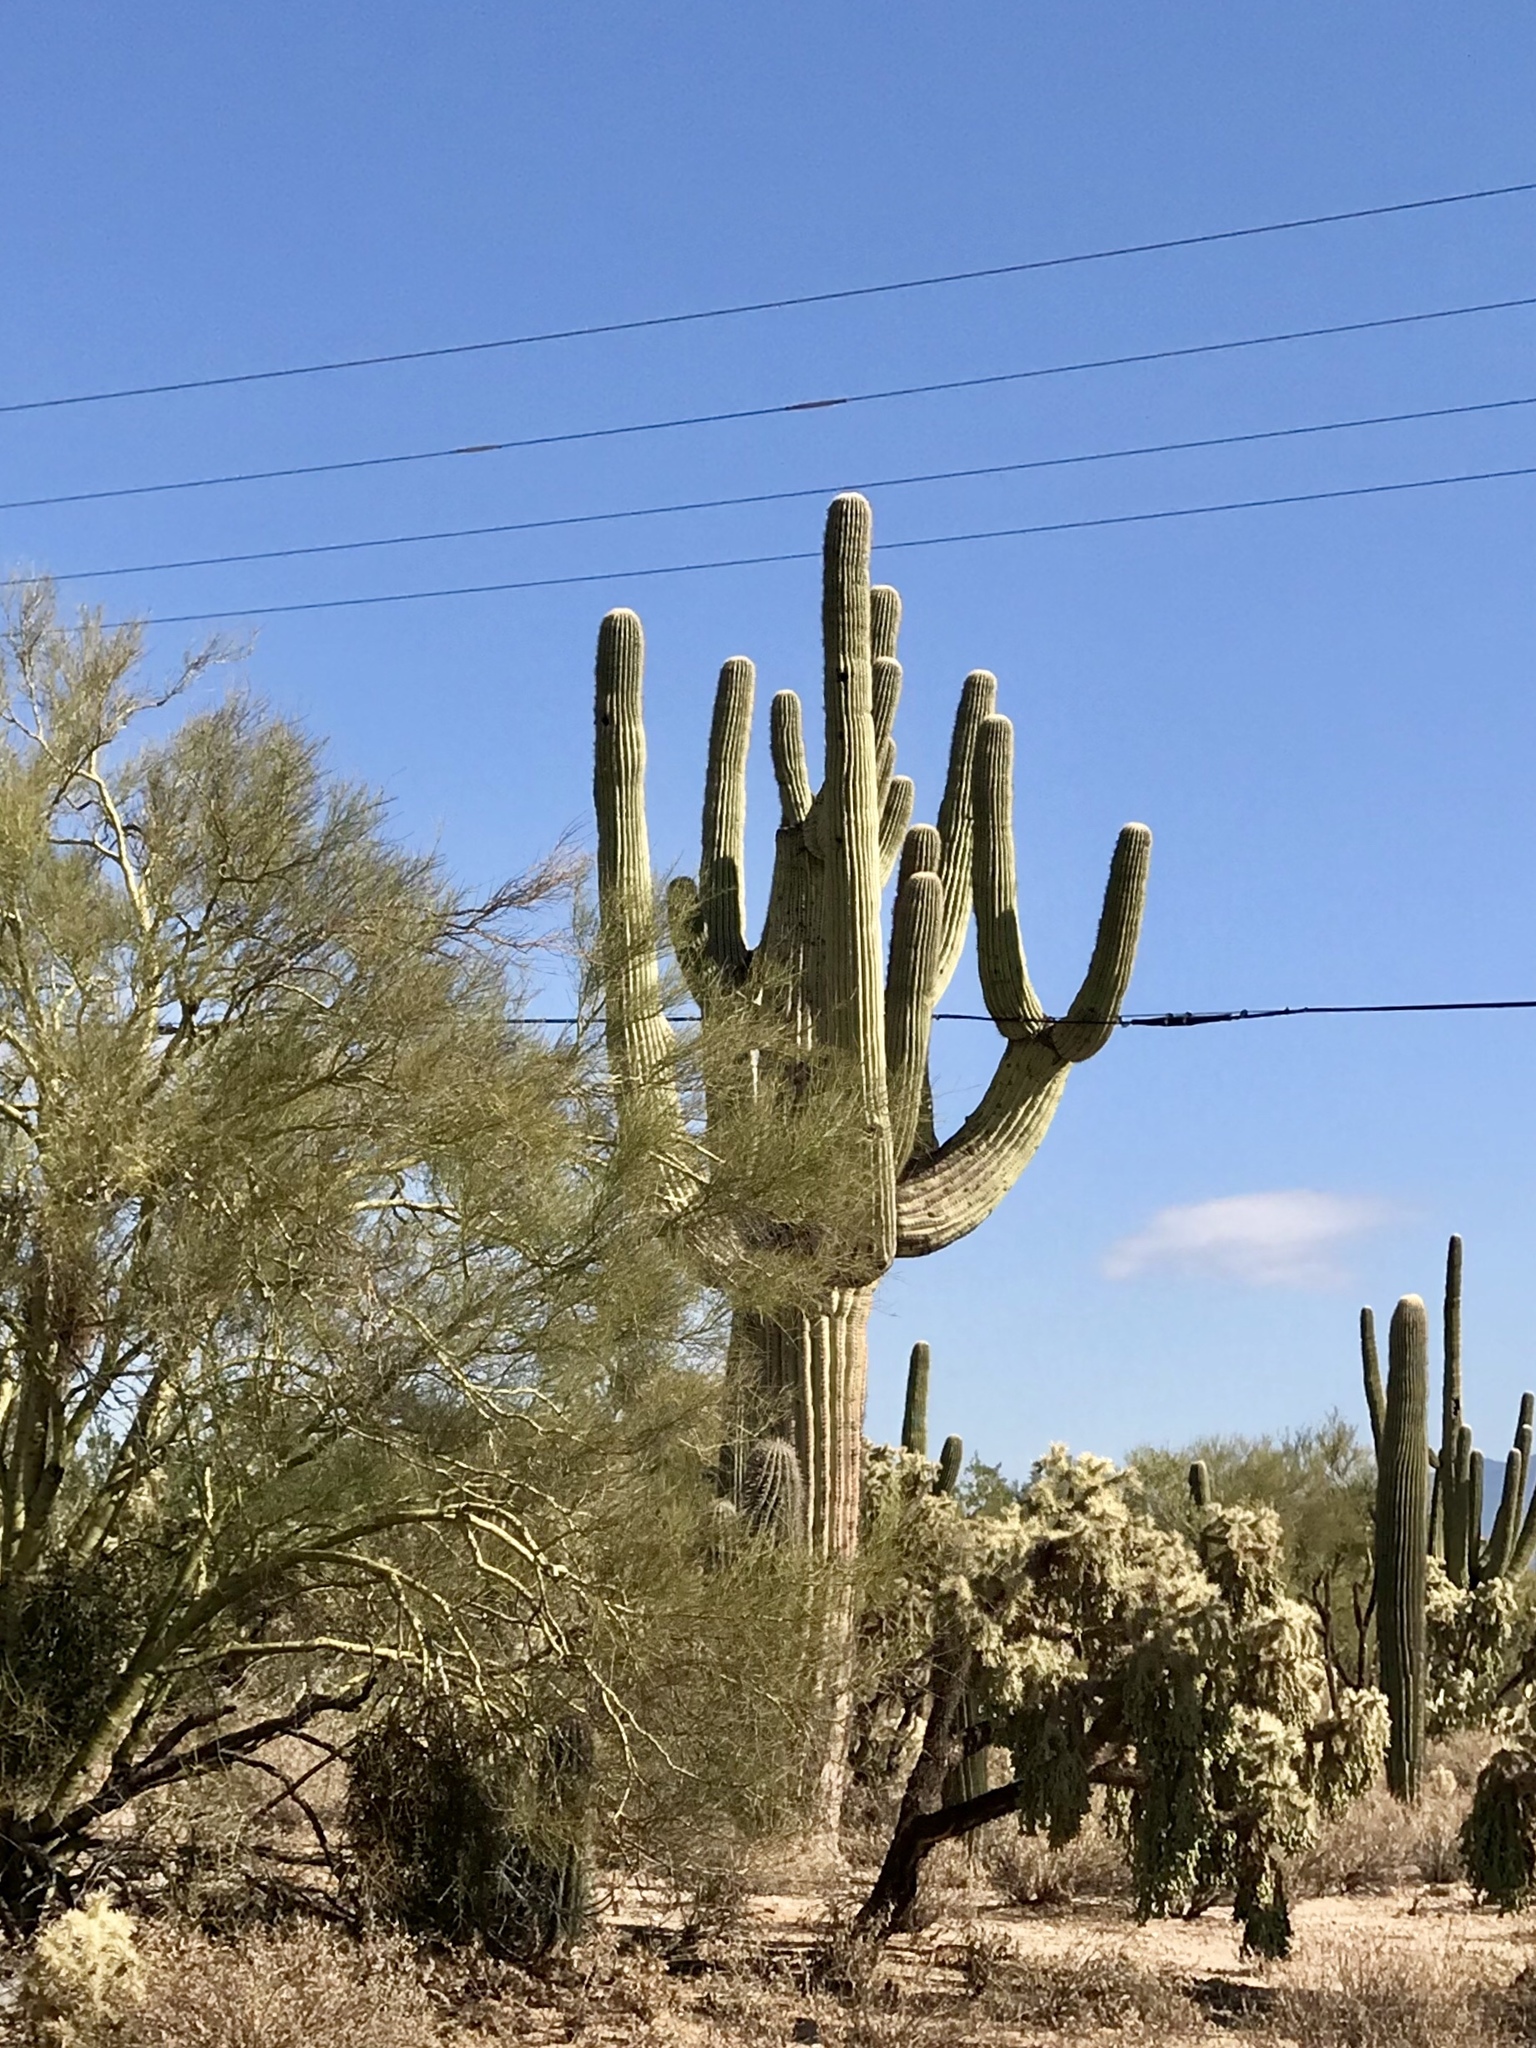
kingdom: Plantae
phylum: Tracheophyta
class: Magnoliopsida
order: Caryophyllales
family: Cactaceae
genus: Carnegiea
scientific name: Carnegiea gigantea
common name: Saguaro
